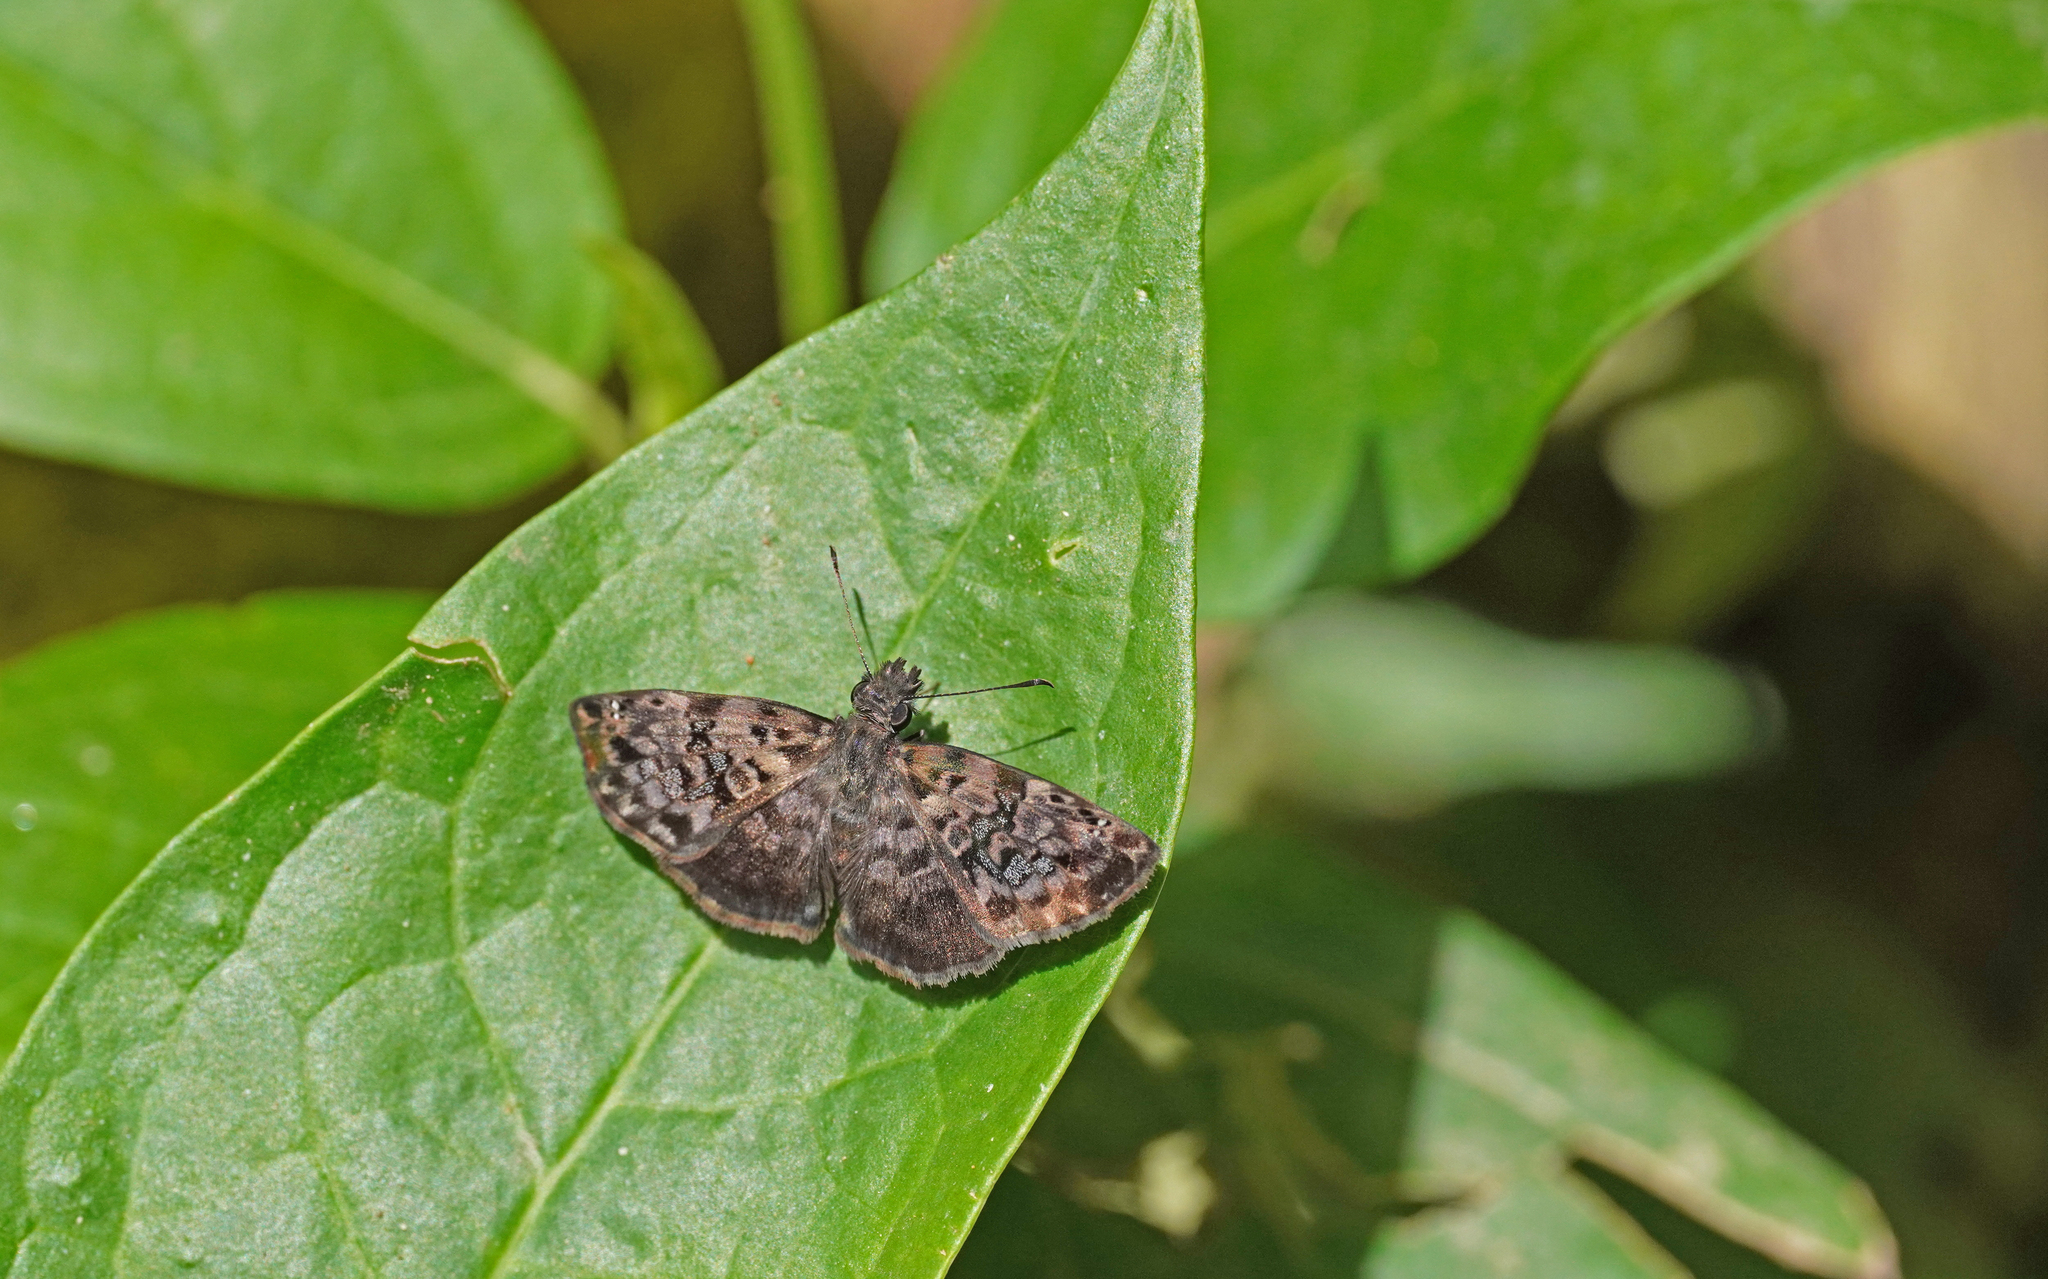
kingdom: Animalia
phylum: Arthropoda
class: Insecta
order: Lepidoptera
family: Hesperiidae
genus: Gorgythion
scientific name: Gorgythion beggina
